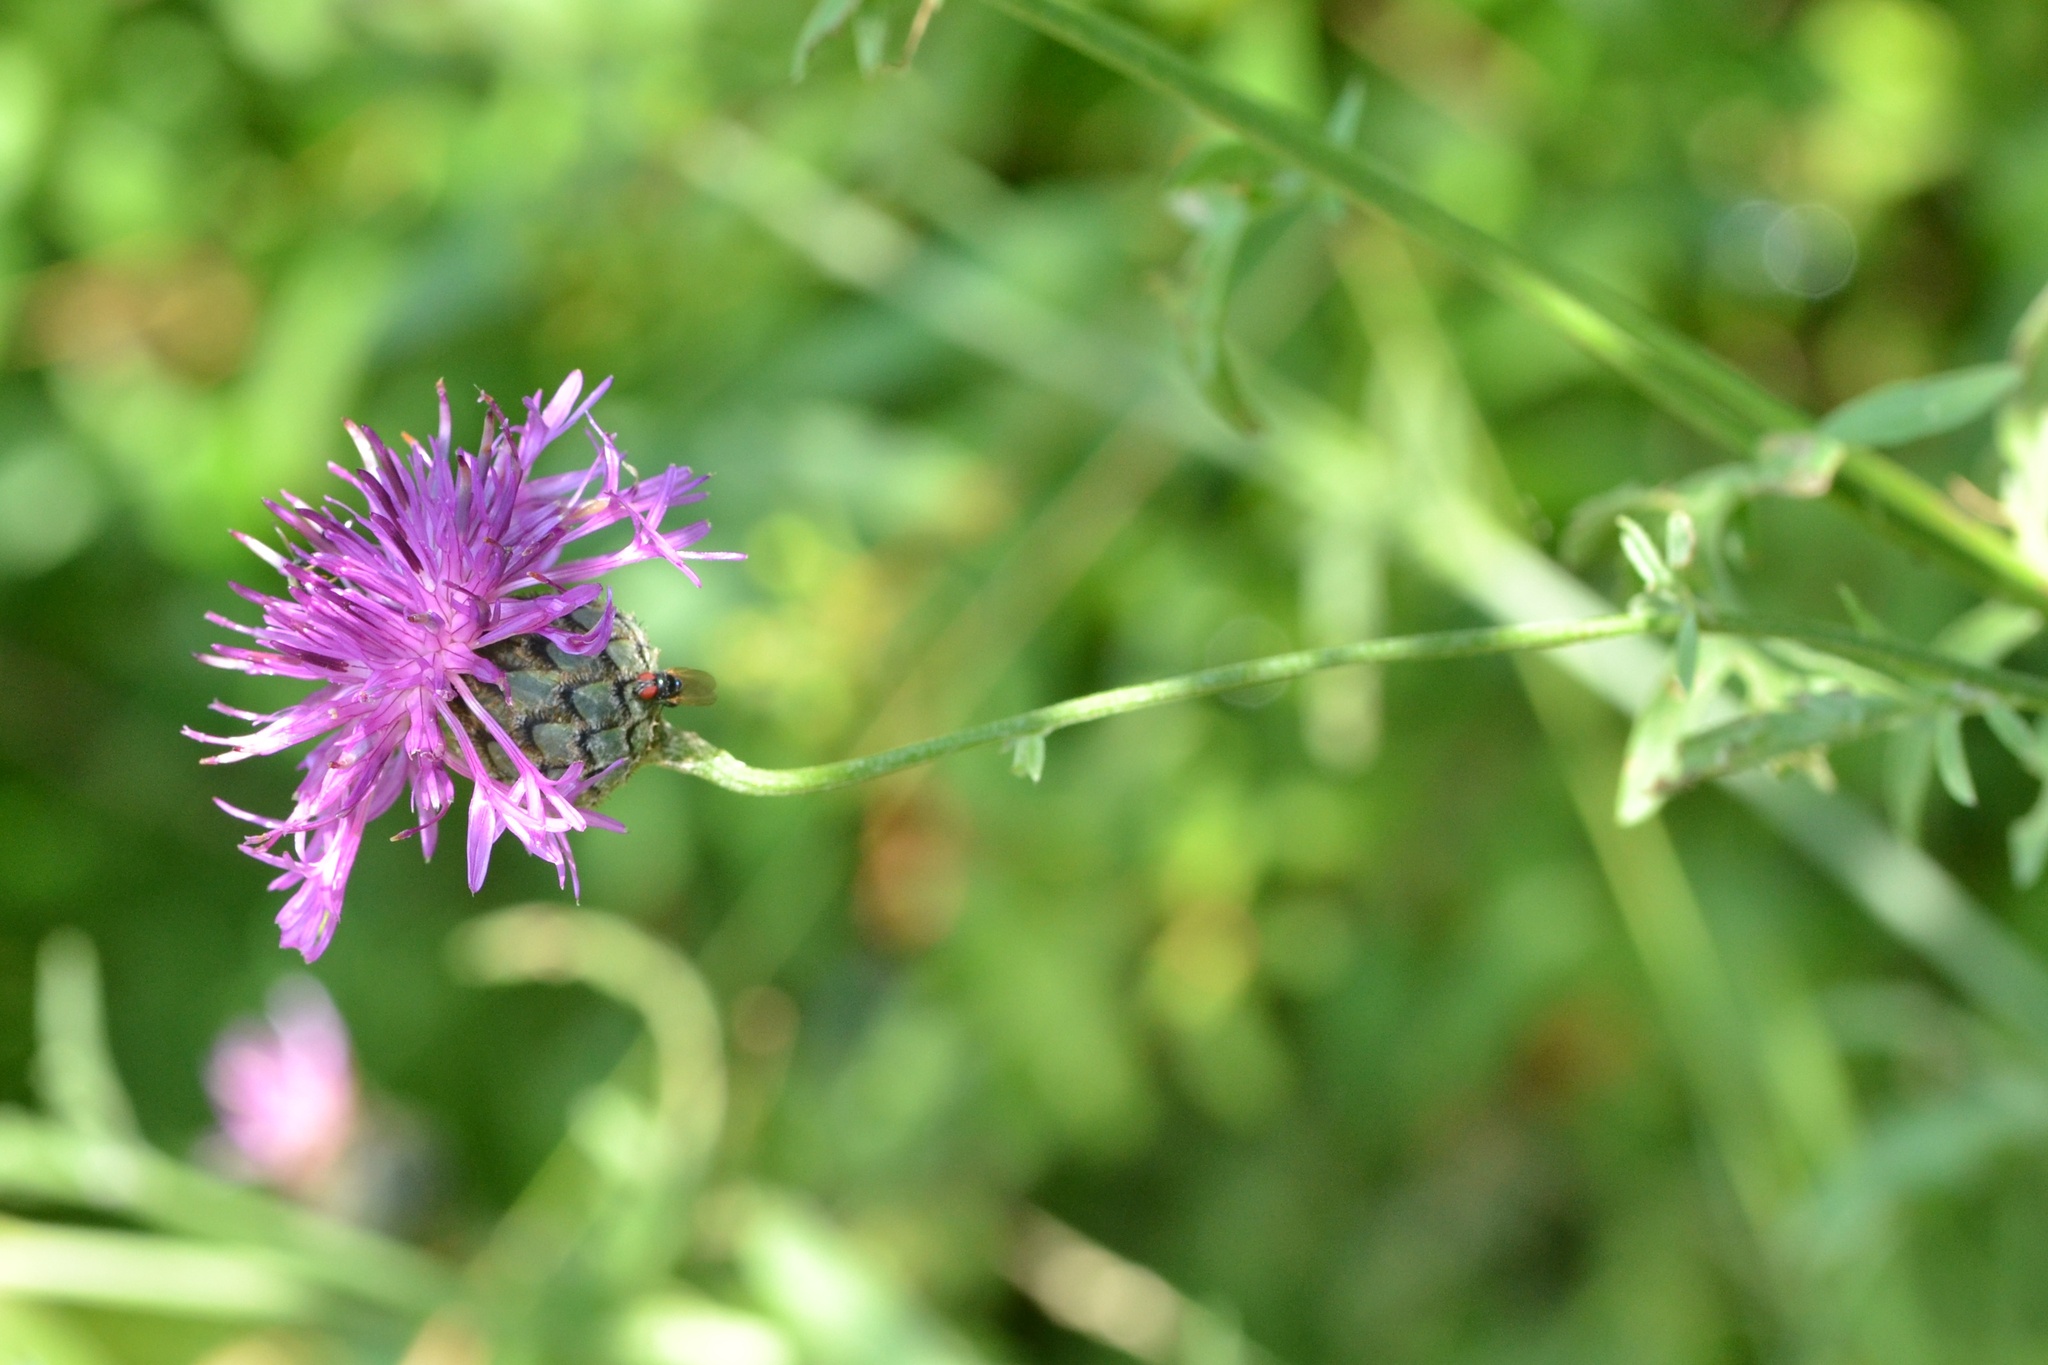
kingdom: Plantae
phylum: Tracheophyta
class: Magnoliopsida
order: Asterales
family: Asteraceae
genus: Centaurea
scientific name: Centaurea scabiosa
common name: Greater knapweed
